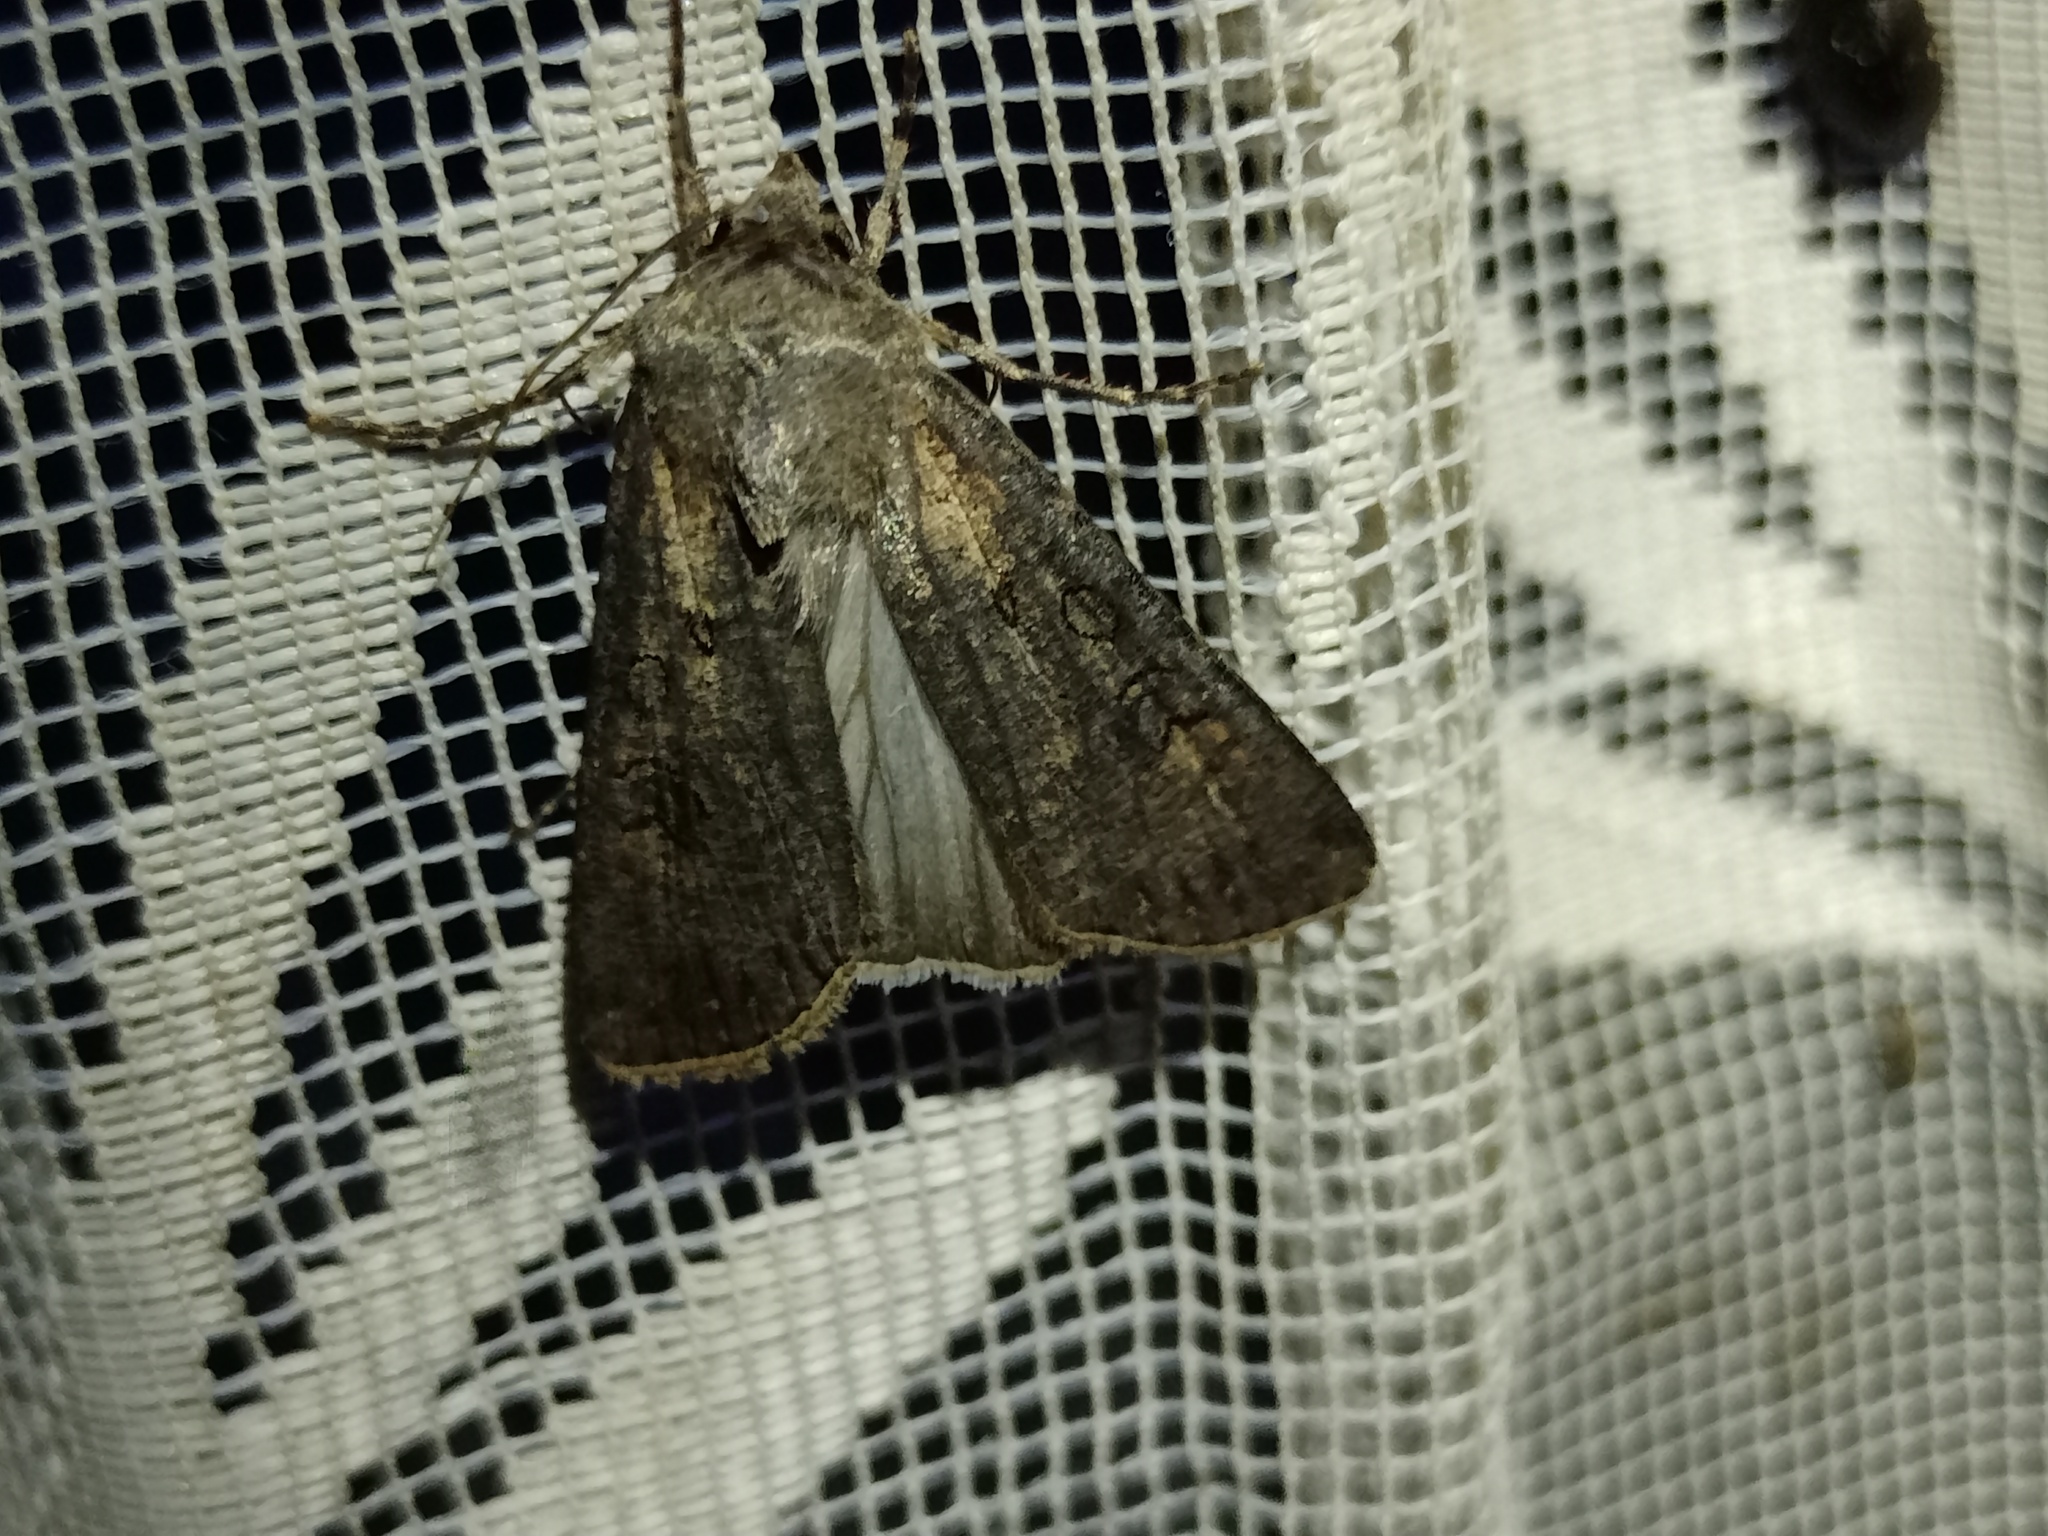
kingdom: Animalia
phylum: Arthropoda
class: Insecta
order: Lepidoptera
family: Noctuidae
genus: Agrotis
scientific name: Agrotis segetum
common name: Turnip moth
